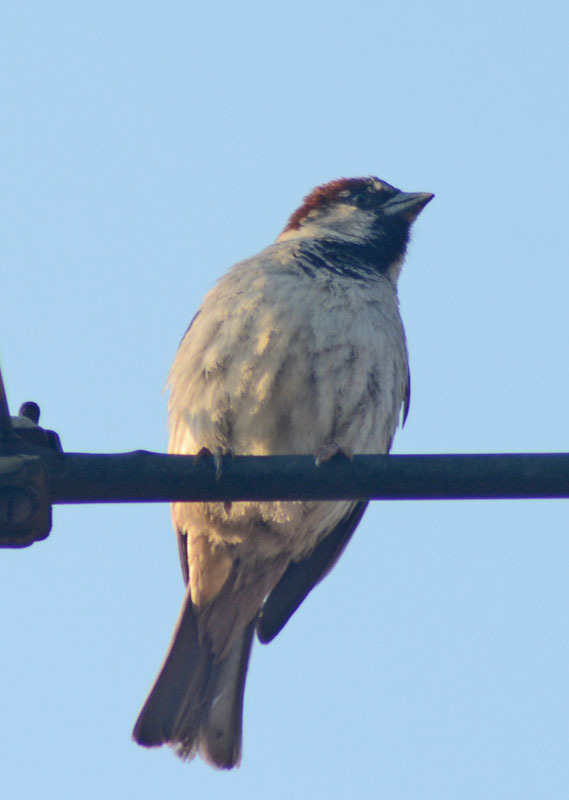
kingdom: Animalia
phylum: Chordata
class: Aves
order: Passeriformes
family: Passeridae
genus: Passer
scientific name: Passer domesticus
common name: House sparrow
